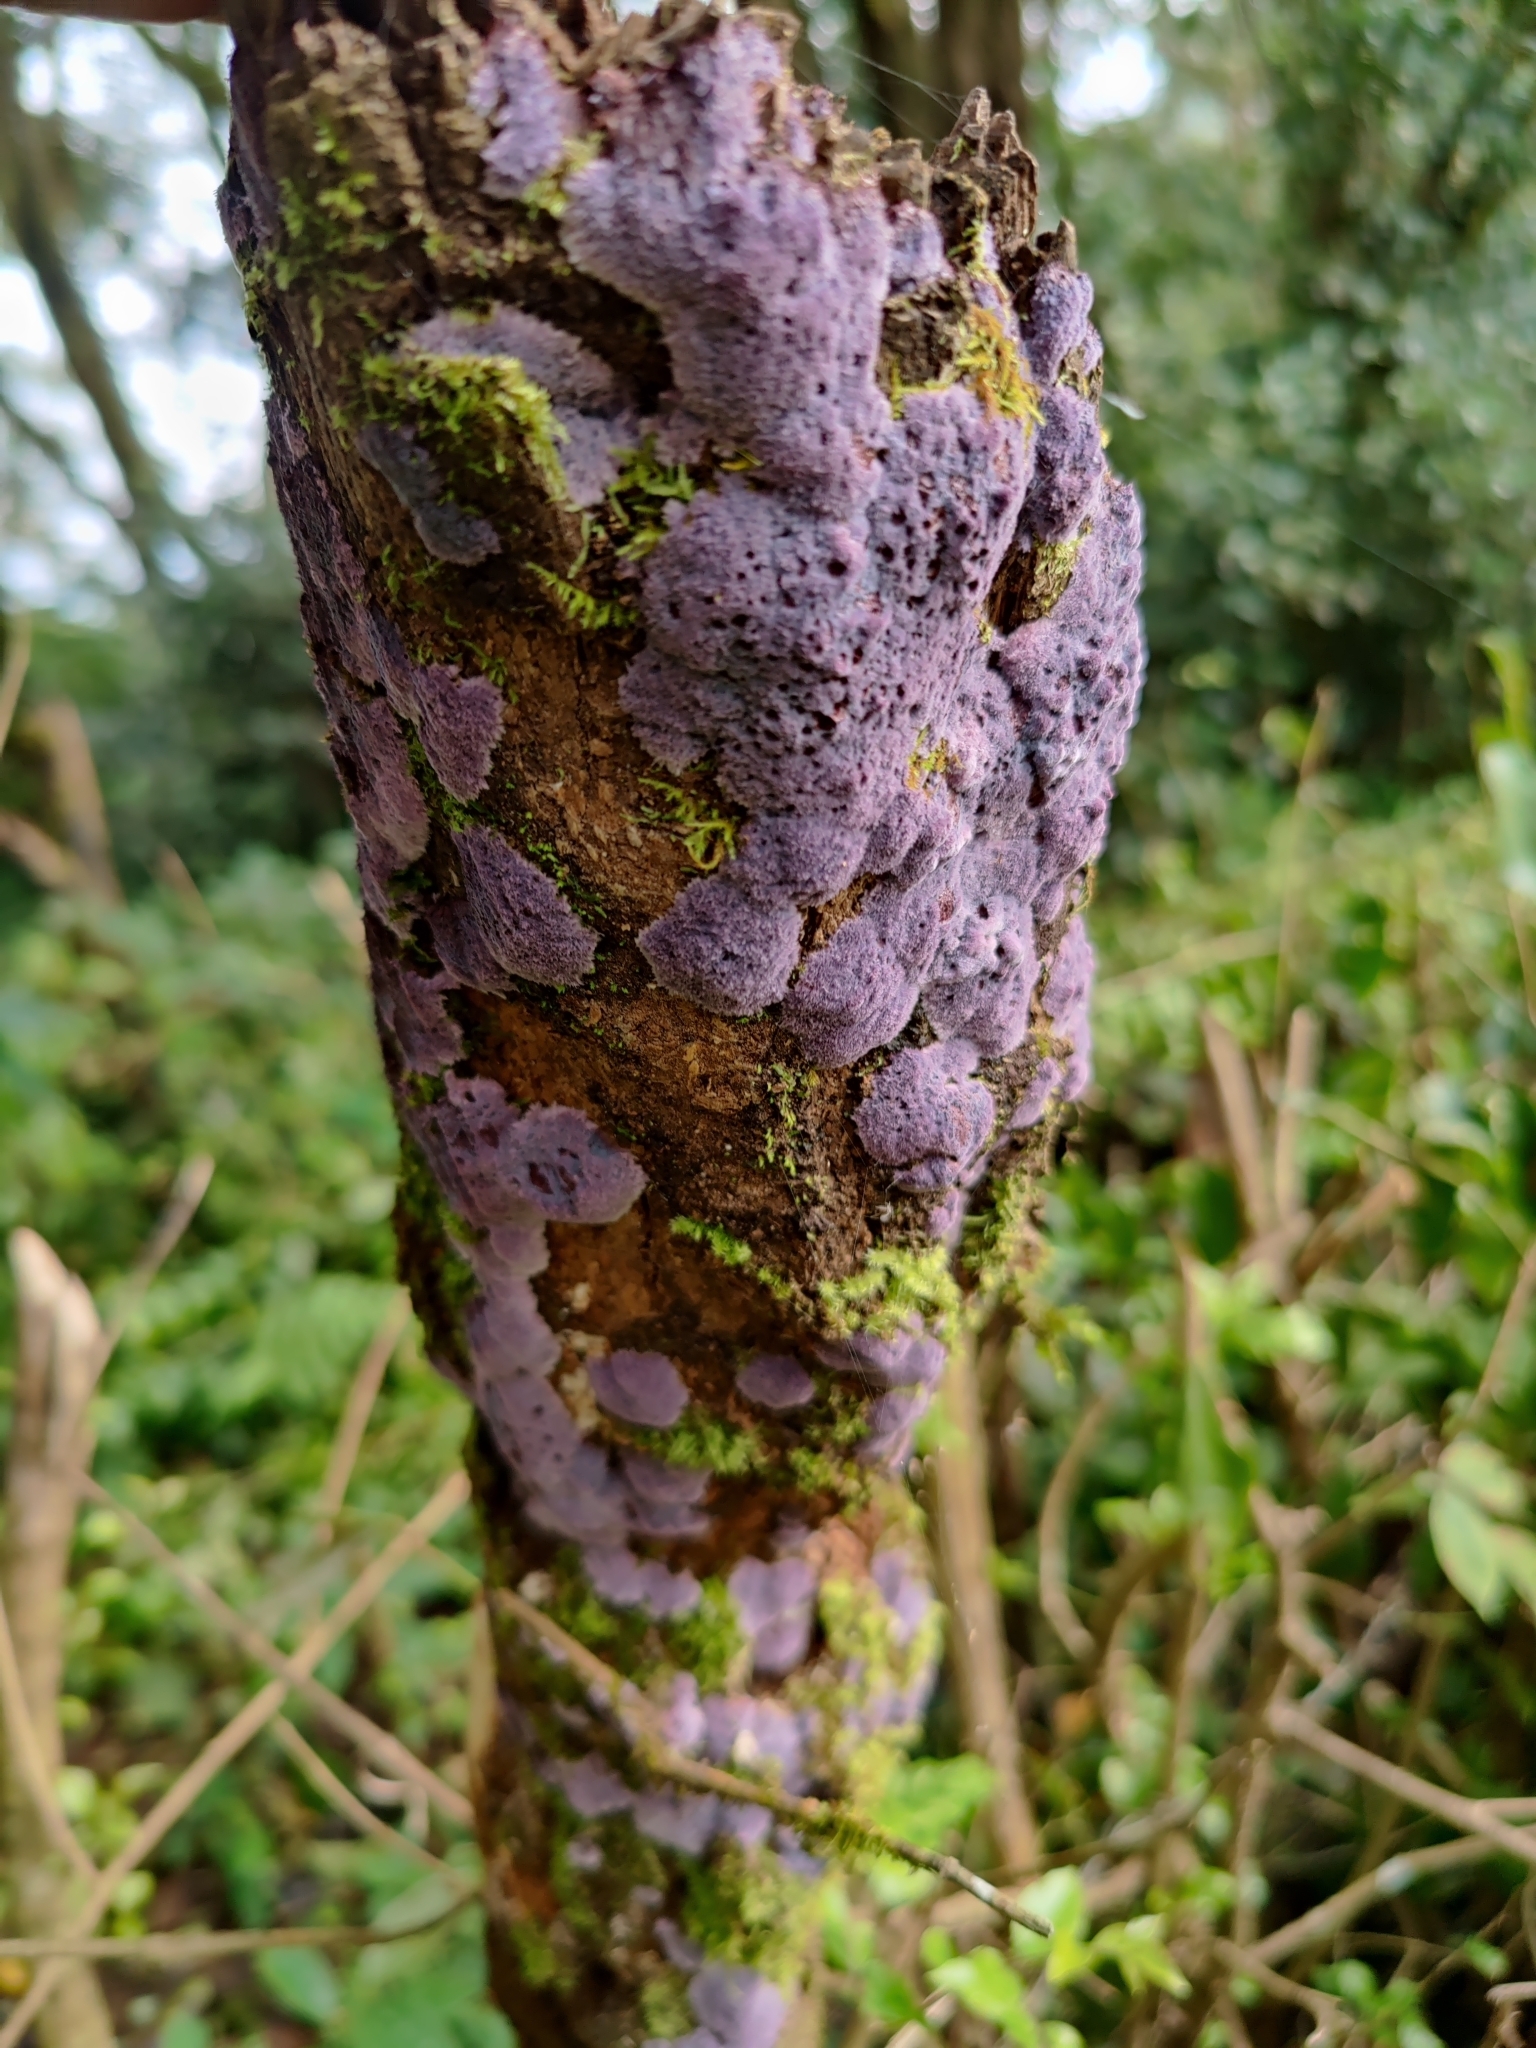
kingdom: Fungi
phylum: Basidiomycota
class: Agaricomycetes
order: Corticiales
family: Punctulariaceae
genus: Punctularia
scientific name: Punctularia atropurpurascens
